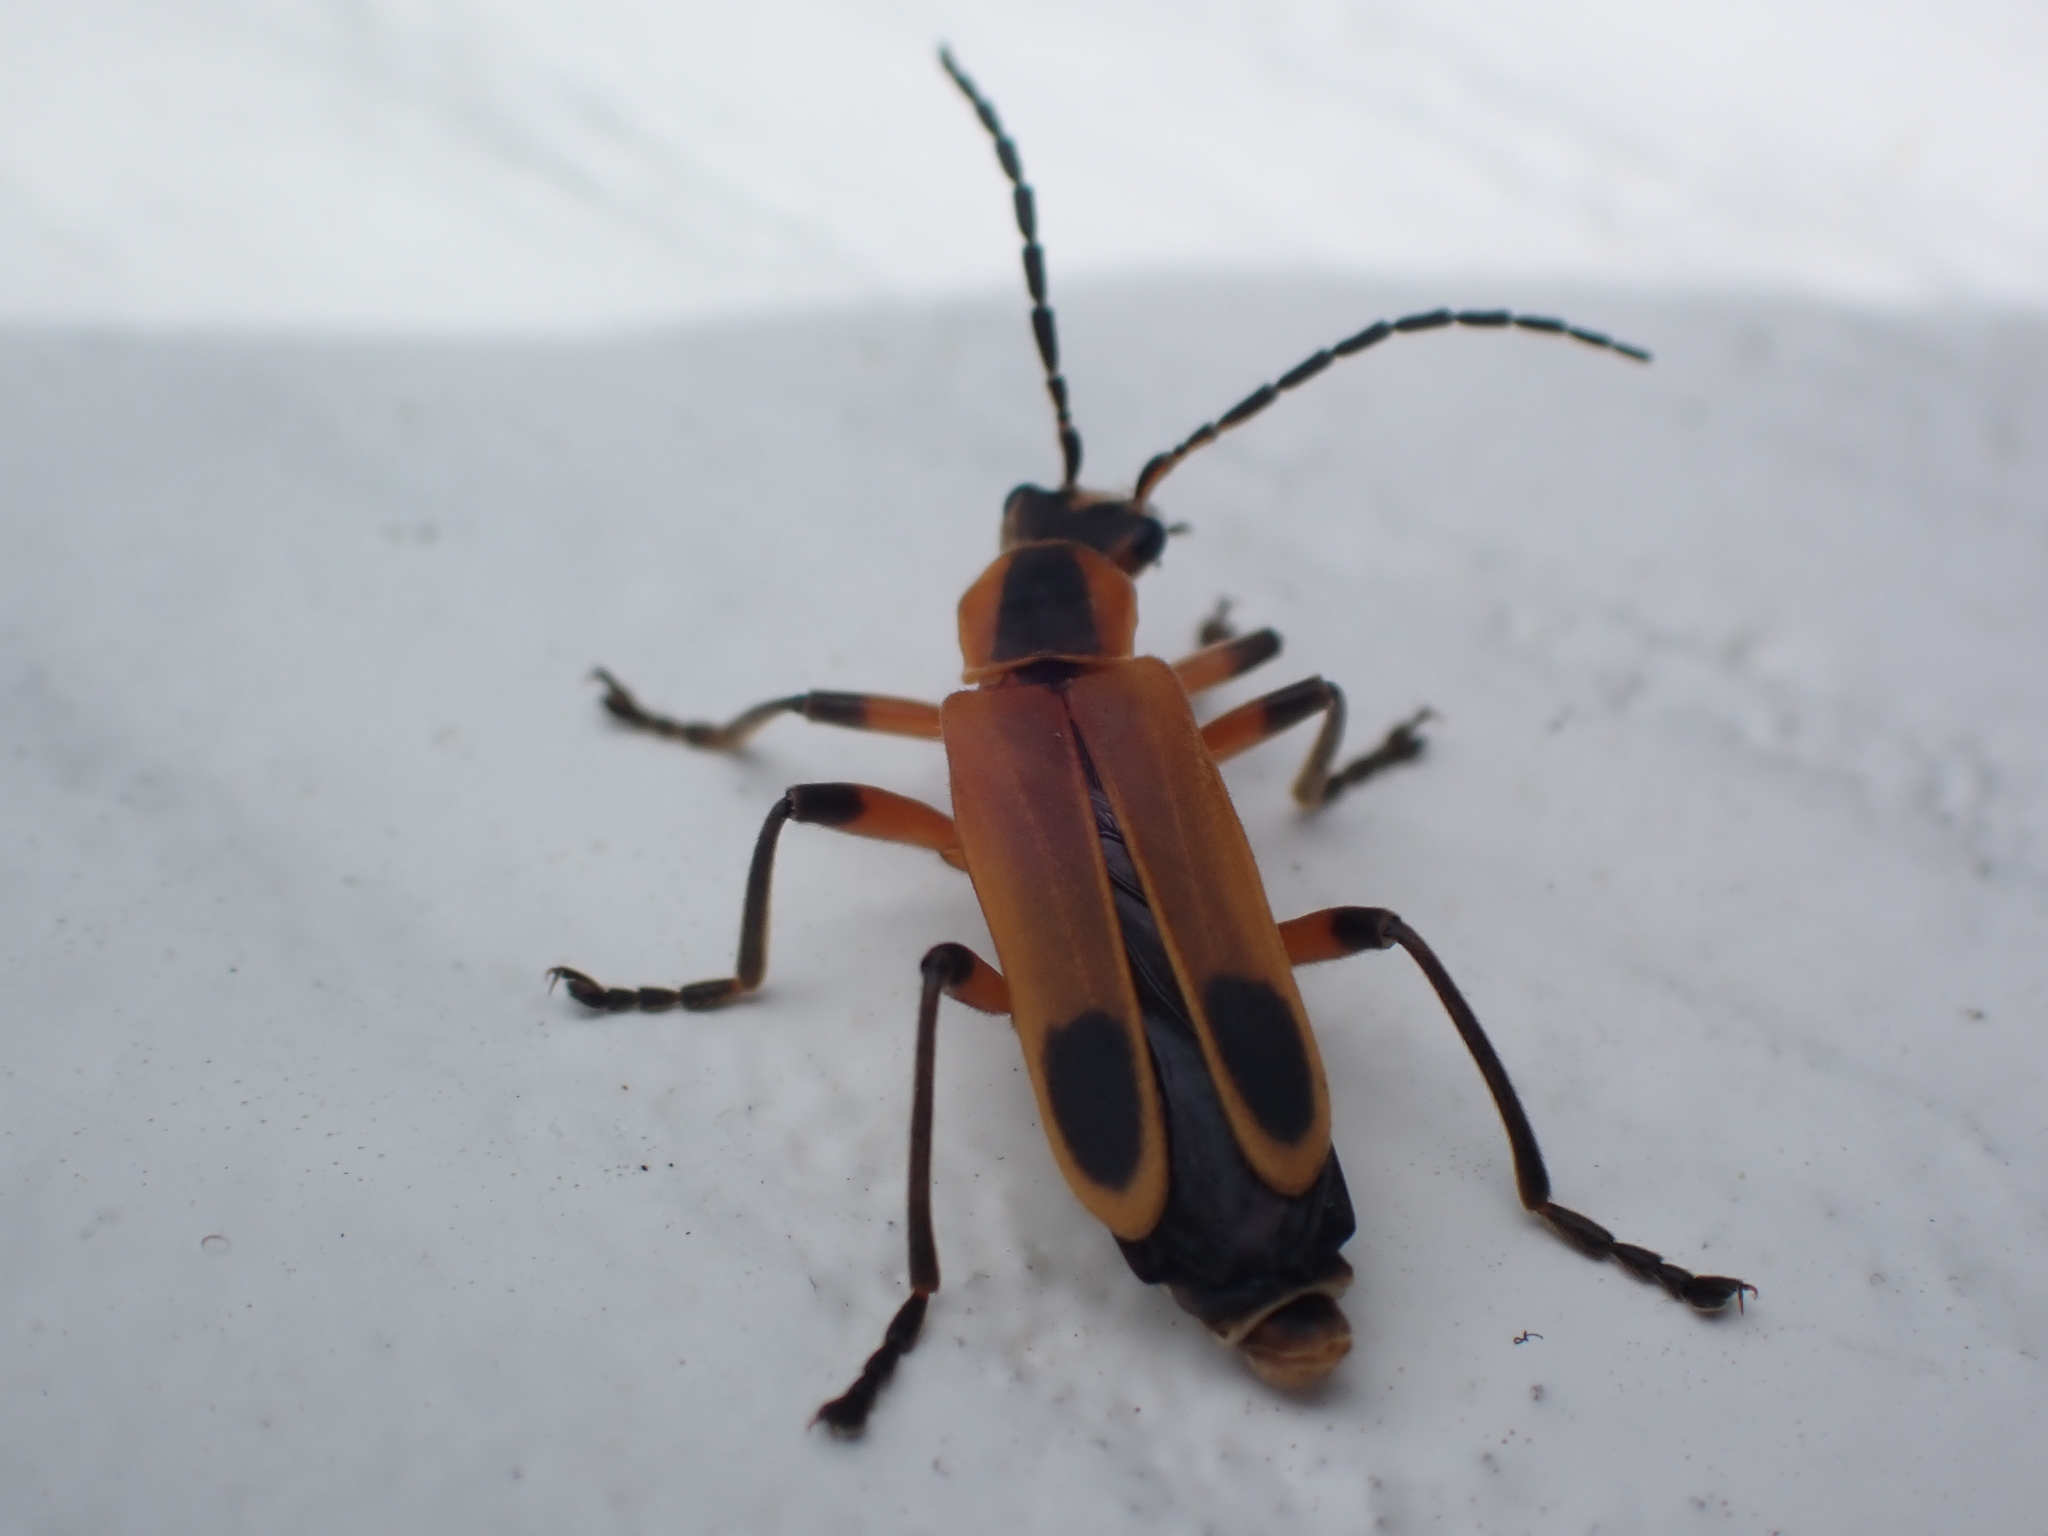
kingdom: Animalia
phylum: Arthropoda
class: Insecta
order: Coleoptera
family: Cantharidae
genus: Chauliognathus
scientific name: Chauliognathus marginatus
